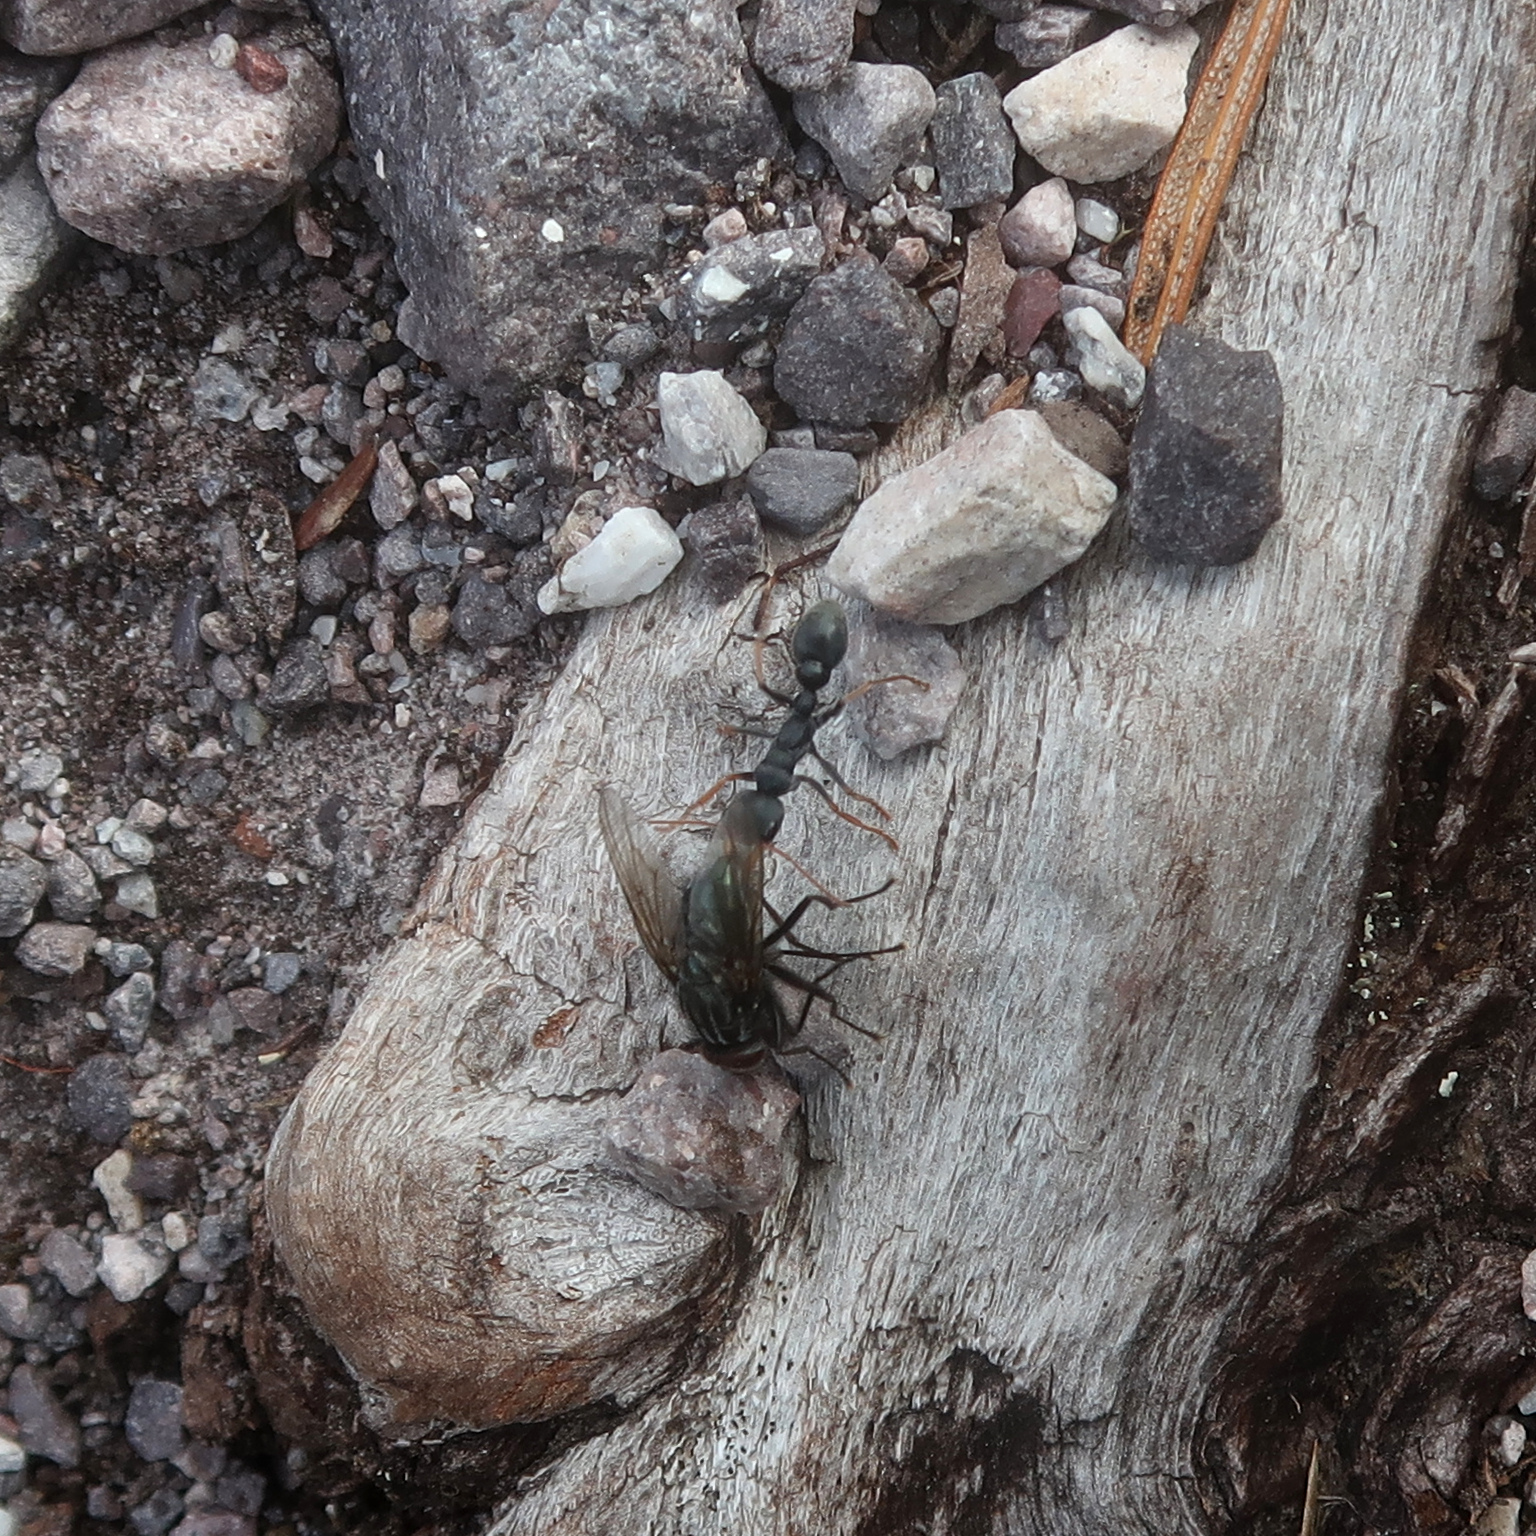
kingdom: Animalia
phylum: Arthropoda
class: Insecta
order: Hymenoptera
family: Formicidae
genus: Myrmecia
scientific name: Myrmecia pilosula
